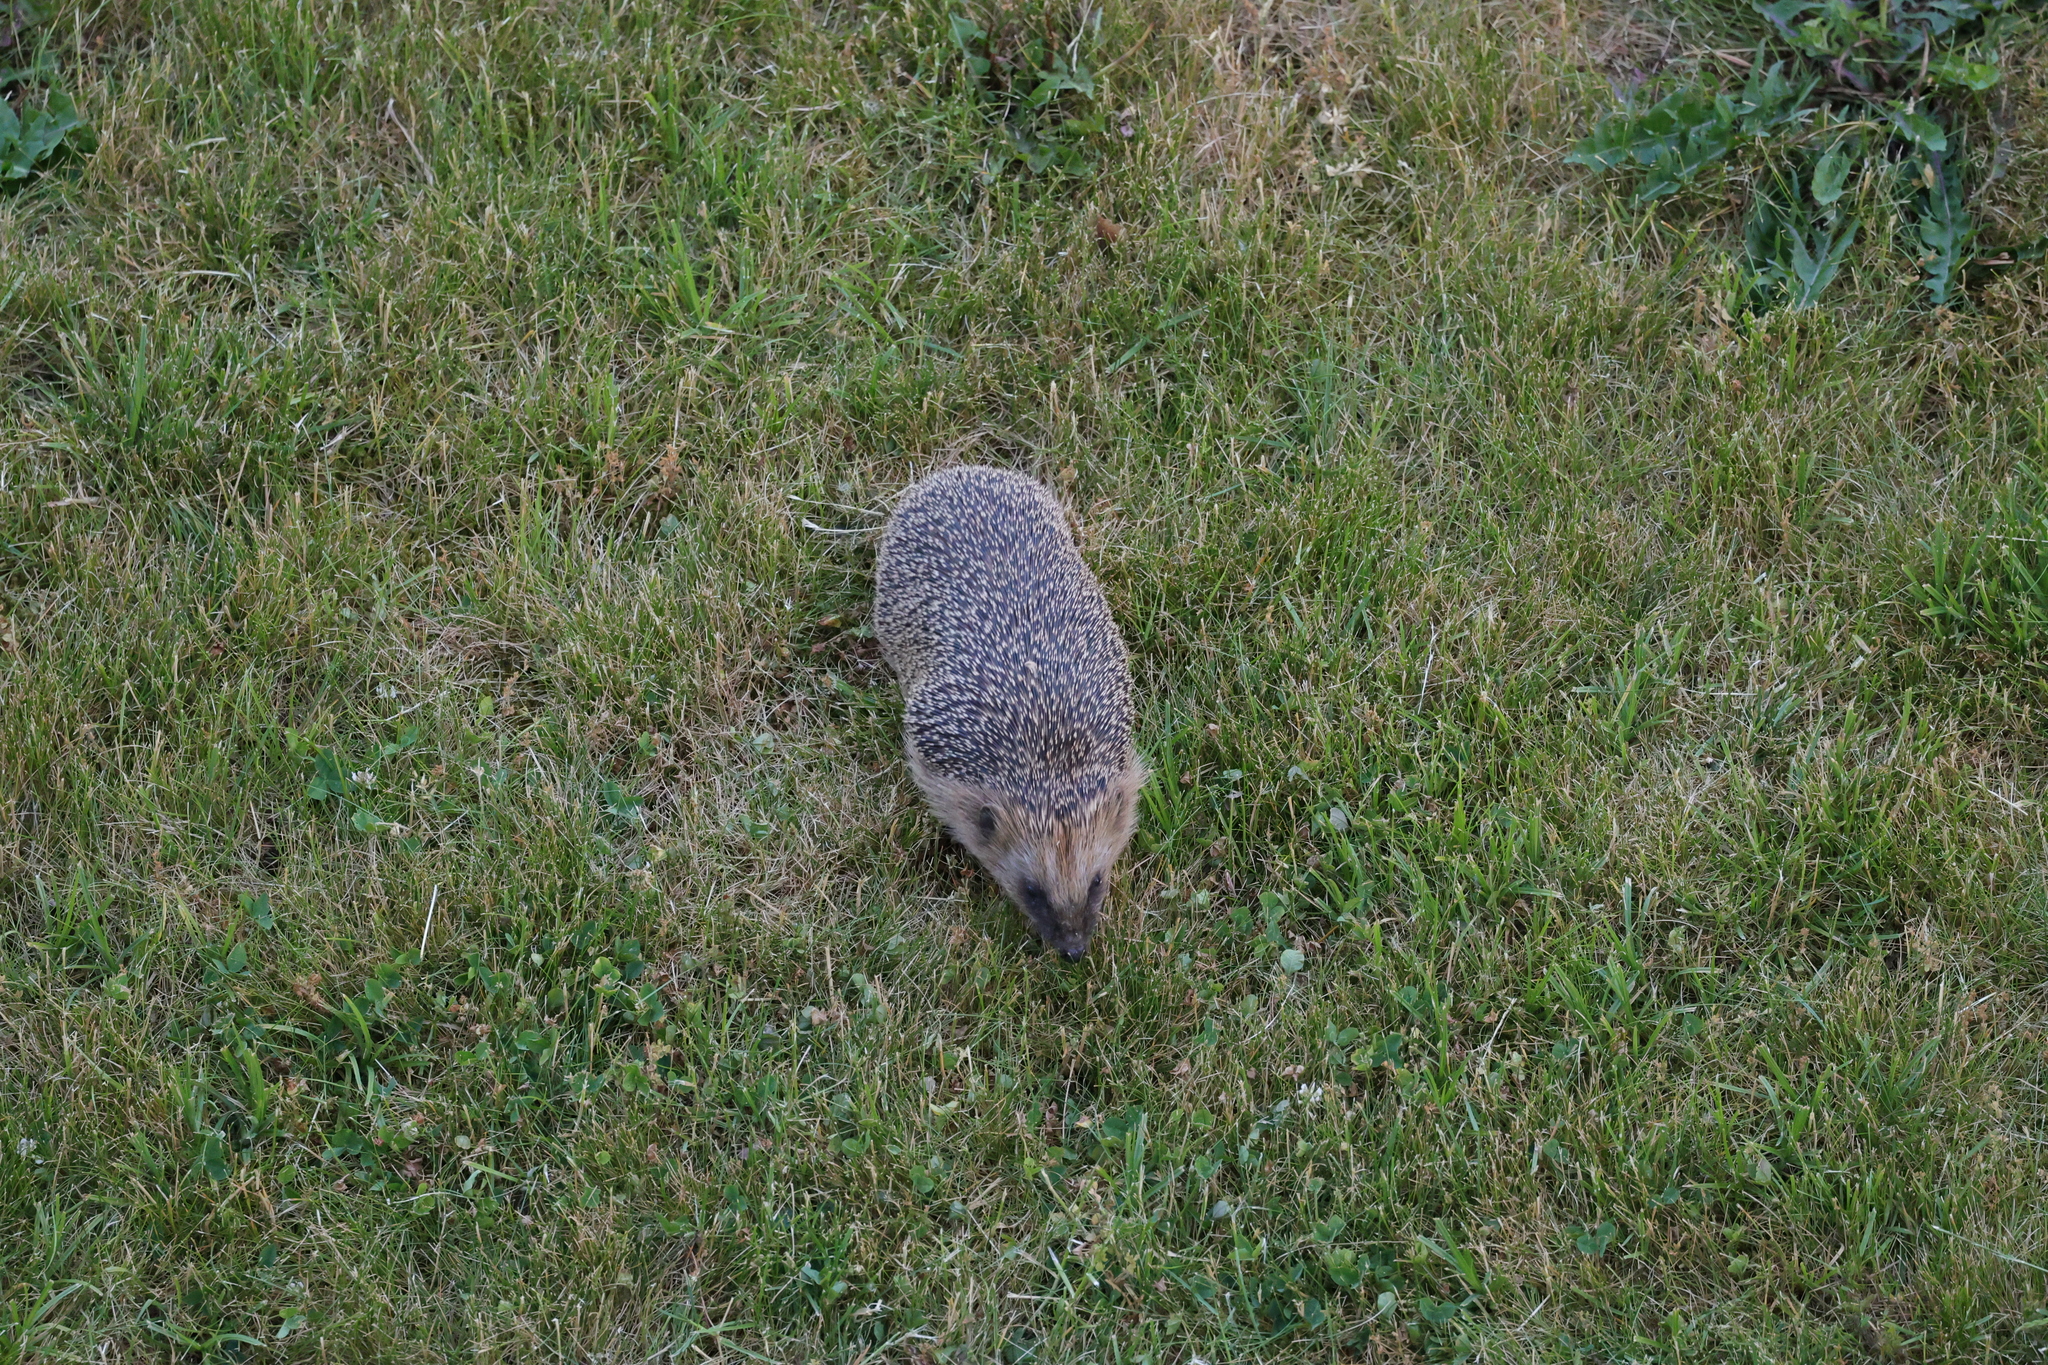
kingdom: Animalia
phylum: Chordata
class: Mammalia
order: Erinaceomorpha
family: Erinaceidae
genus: Erinaceus
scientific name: Erinaceus europaeus
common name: West european hedgehog
